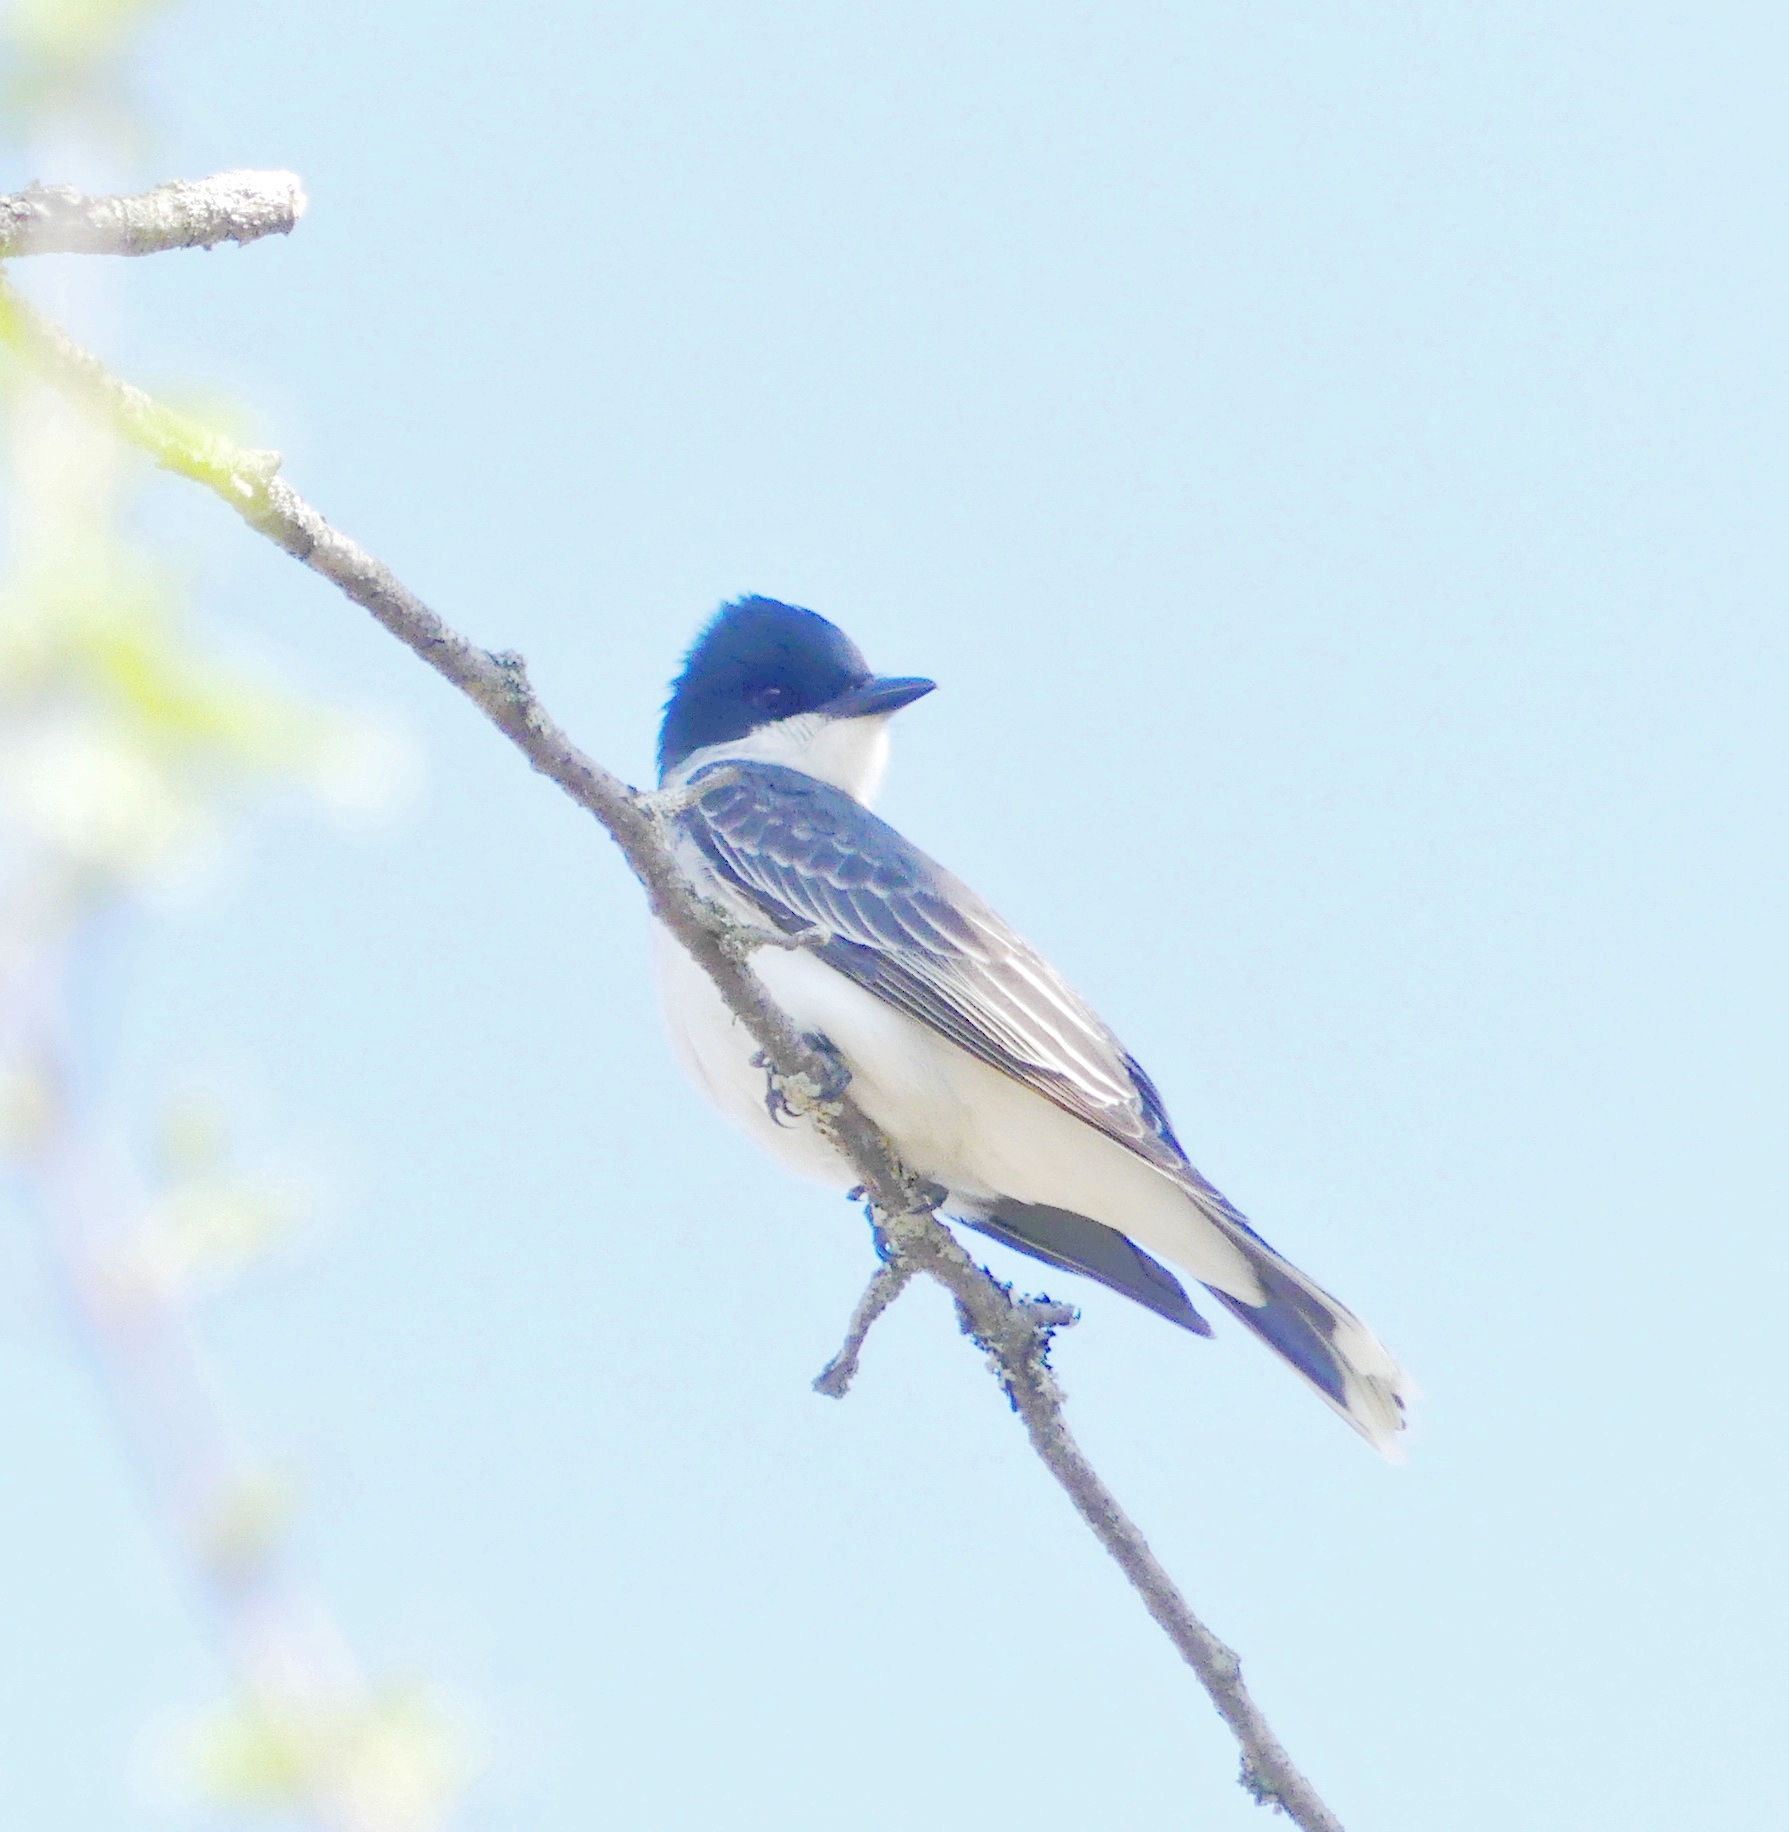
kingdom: Animalia
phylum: Chordata
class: Aves
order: Passeriformes
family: Tyrannidae
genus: Tyrannus
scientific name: Tyrannus tyrannus
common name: Eastern kingbird
